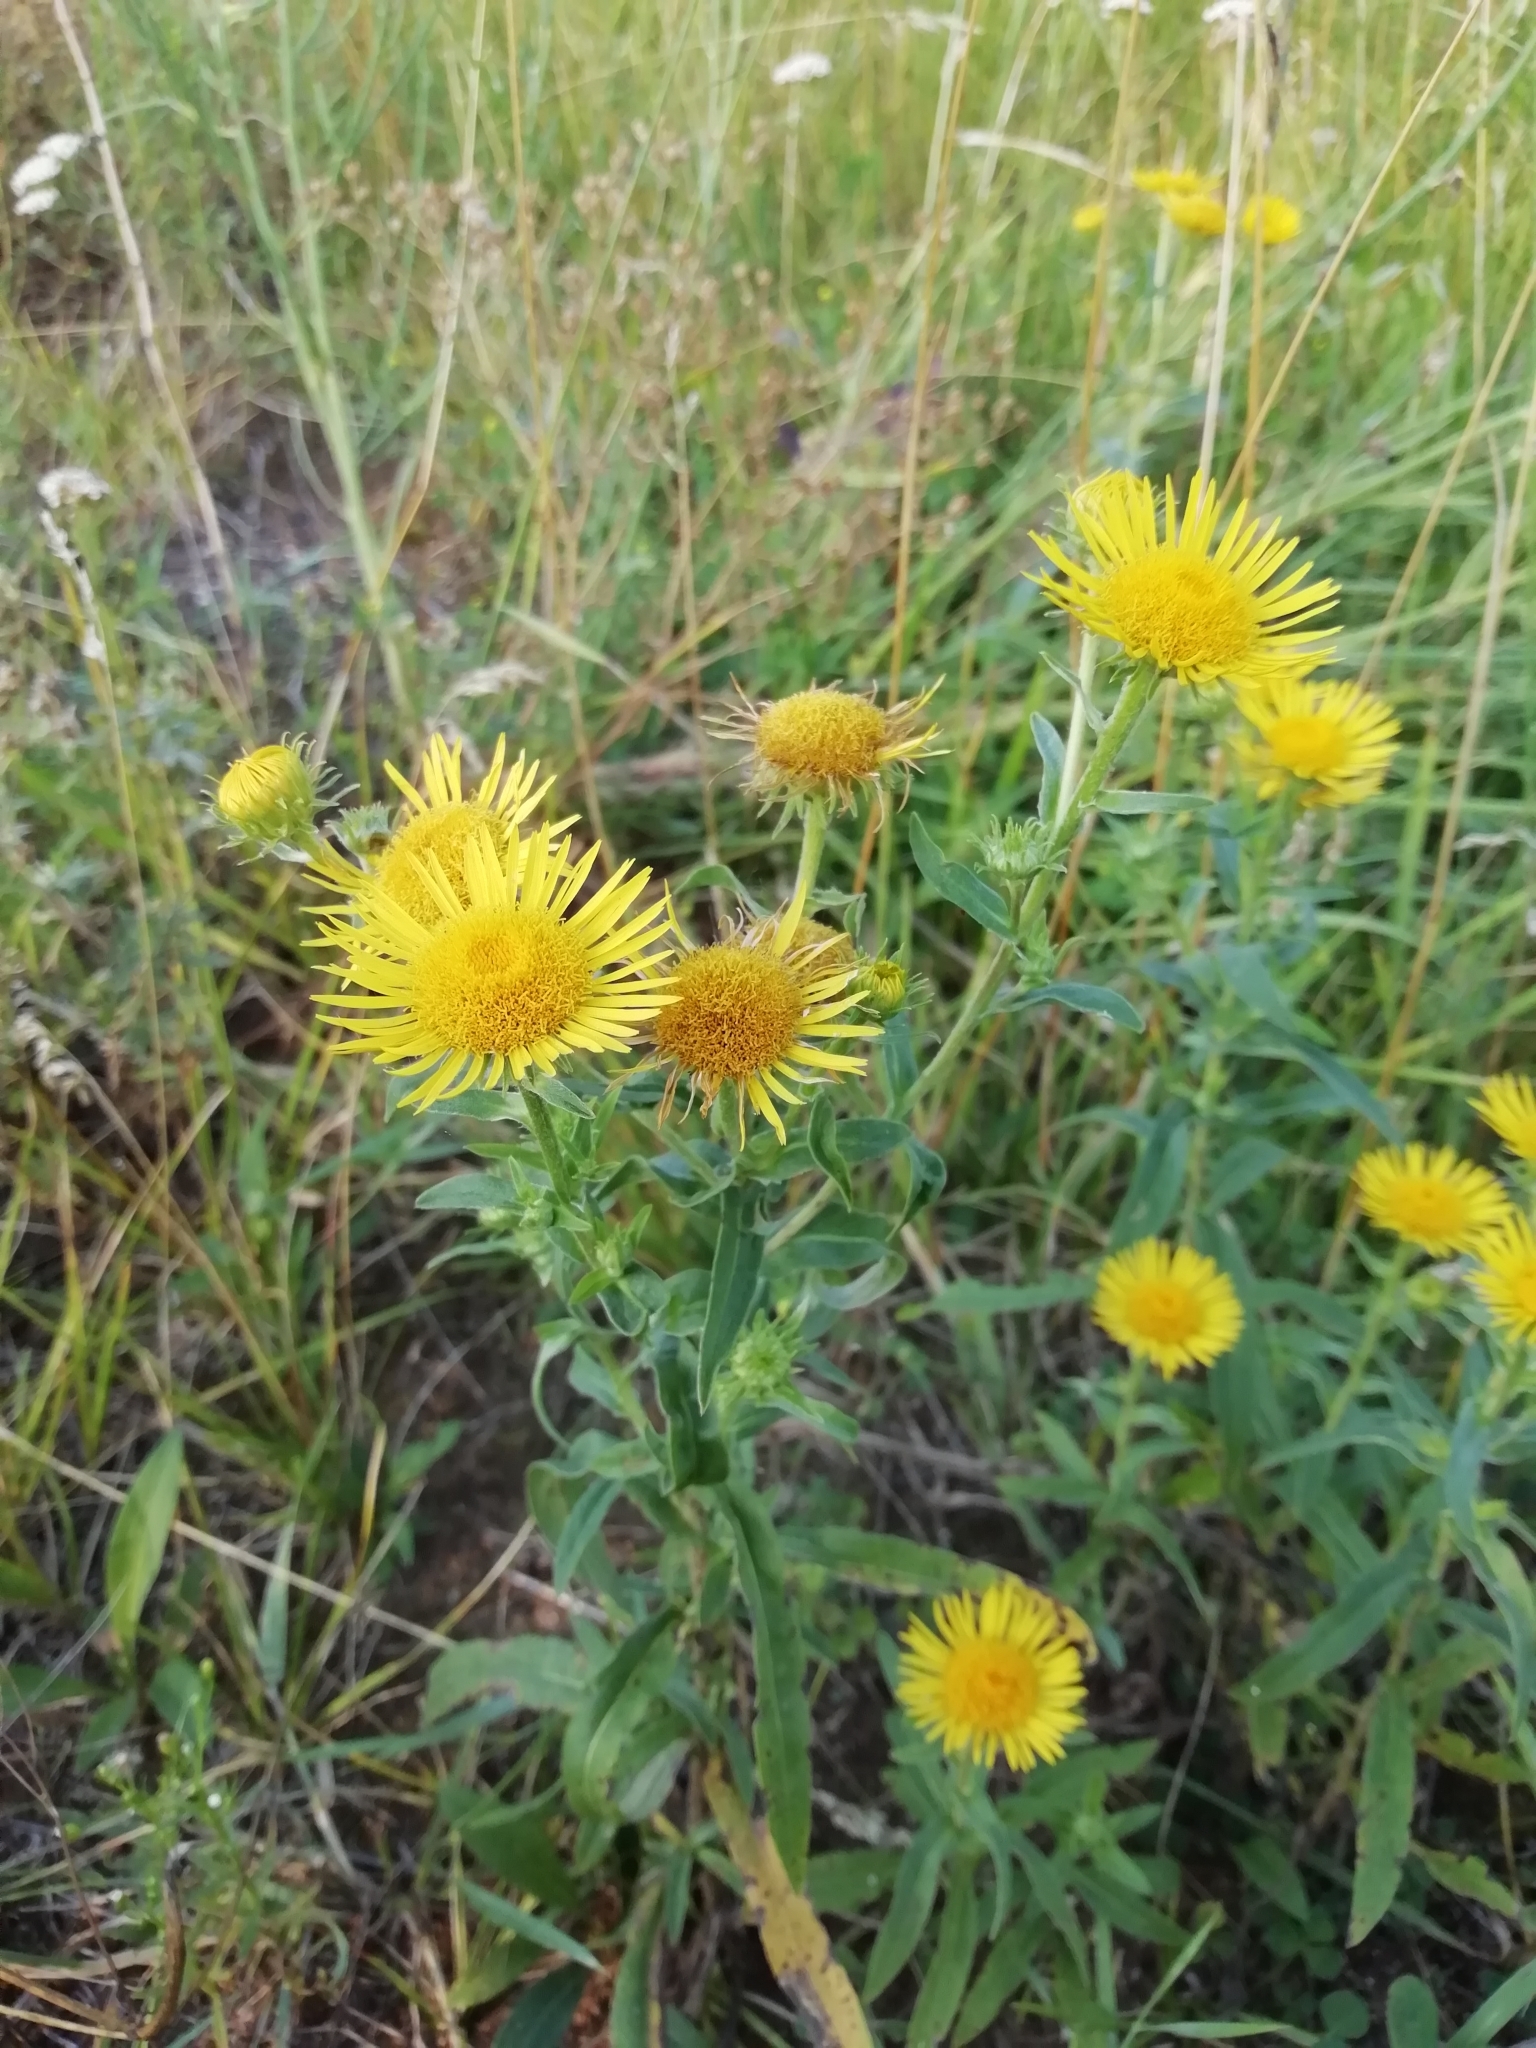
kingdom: Plantae
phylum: Tracheophyta
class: Magnoliopsida
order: Asterales
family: Asteraceae
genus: Pentanema
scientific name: Pentanema britannicum
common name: British elecampane
